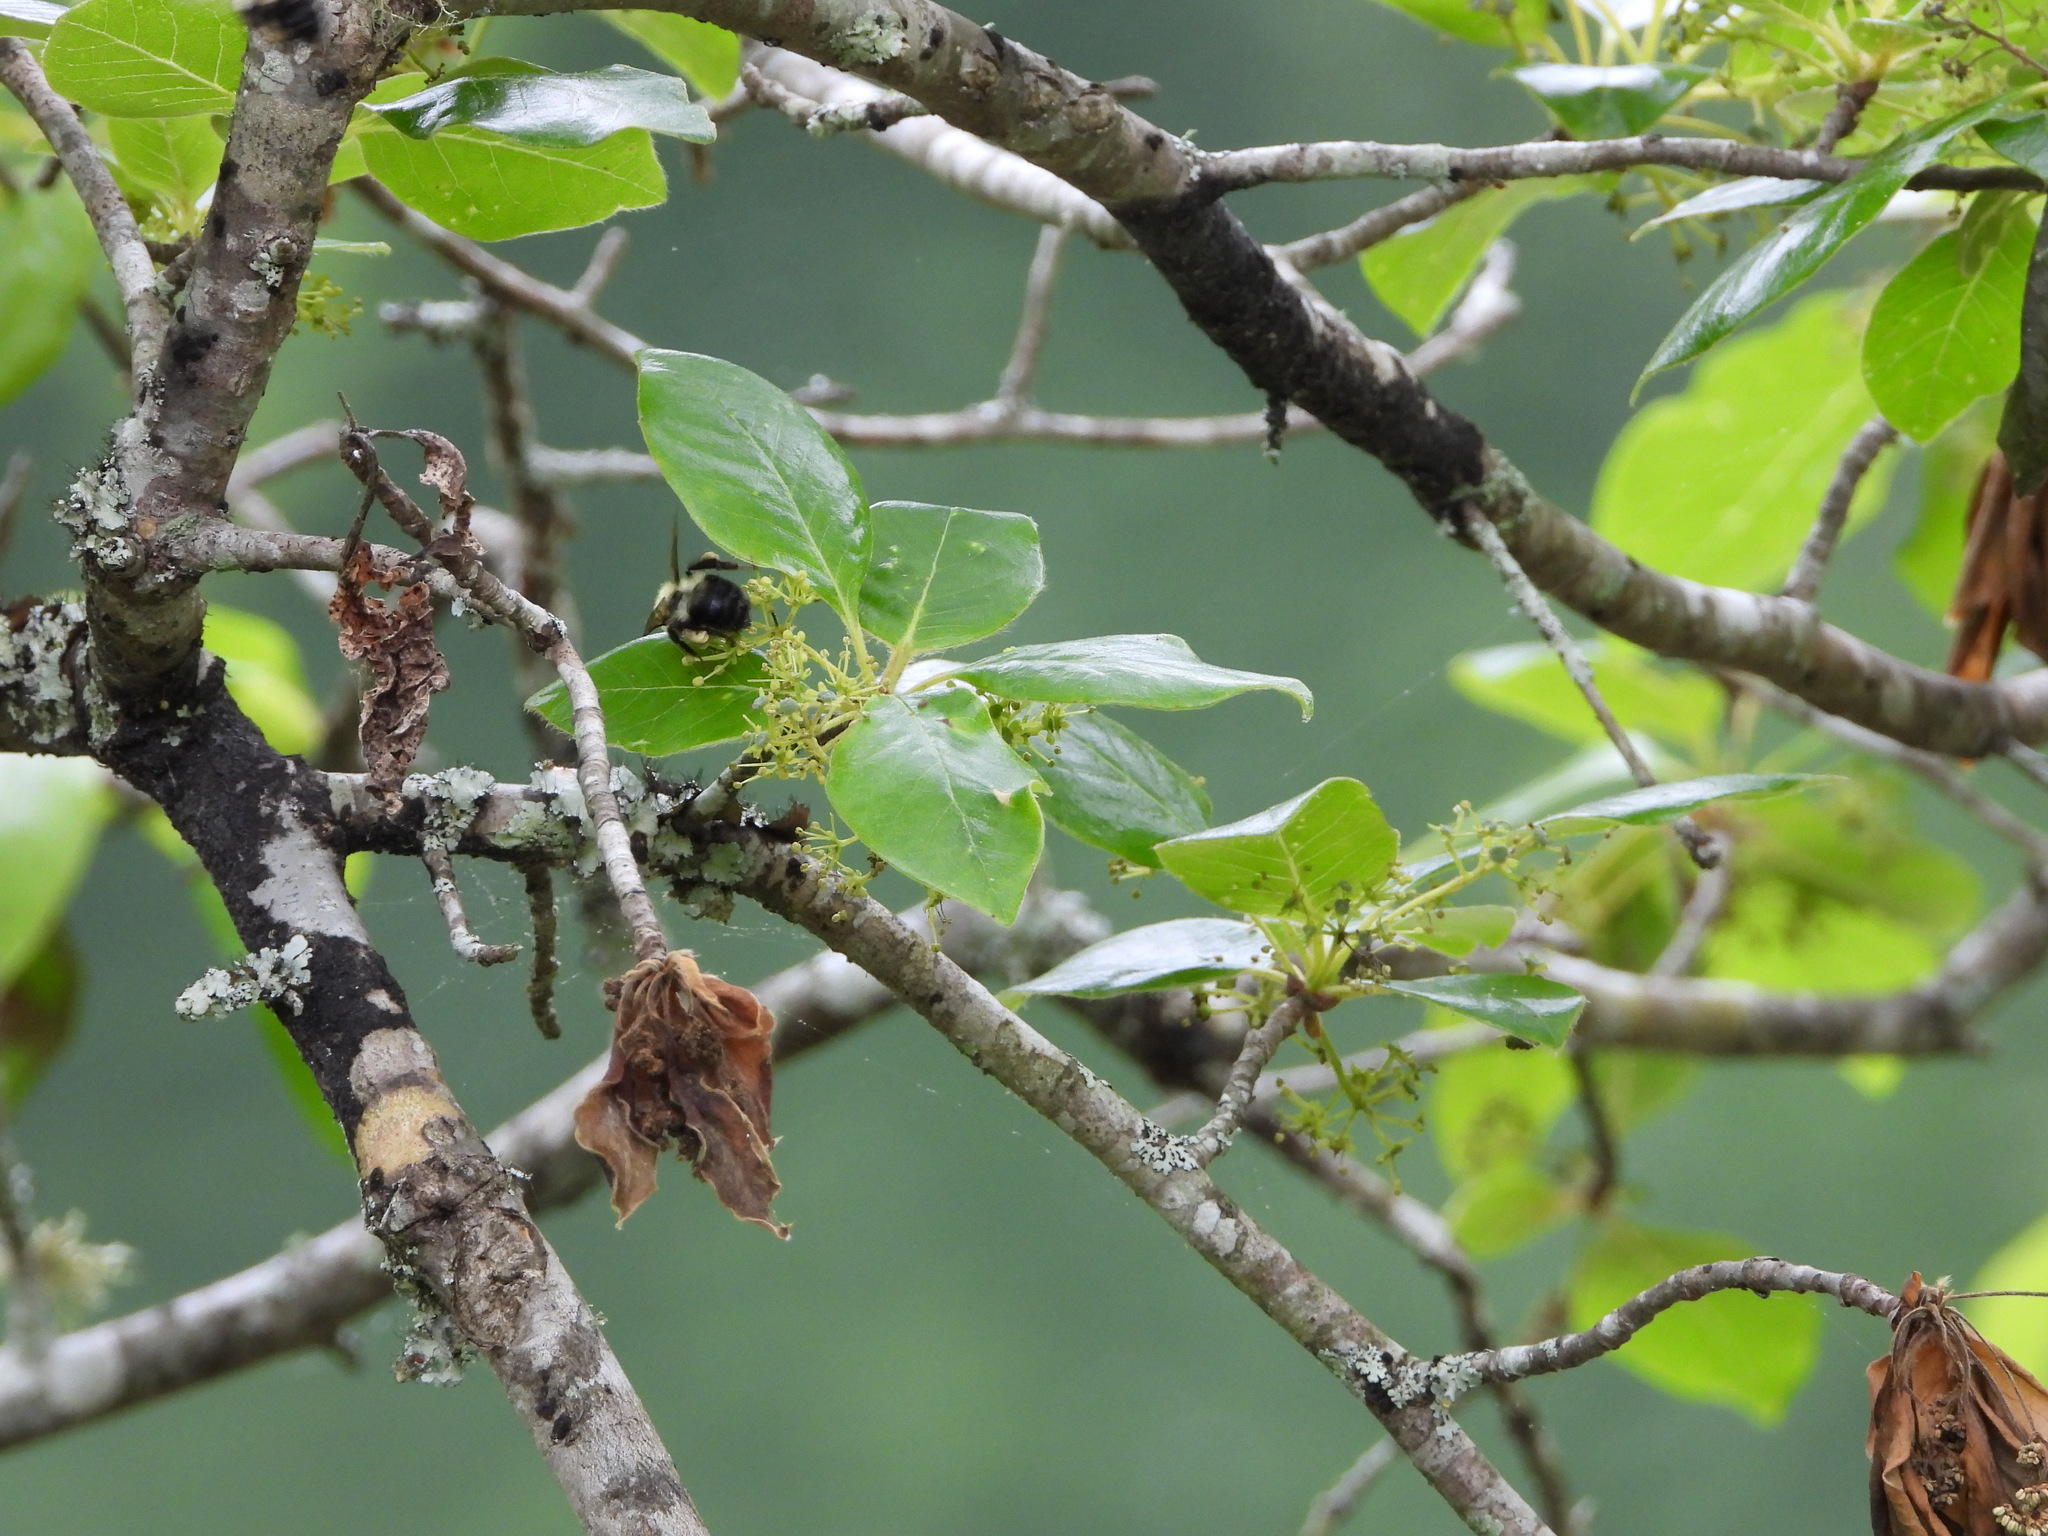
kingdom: Animalia
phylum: Arthropoda
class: Insecta
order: Hymenoptera
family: Apidae
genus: Bombus
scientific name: Bombus bimaculatus
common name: Two-spotted bumble bee
